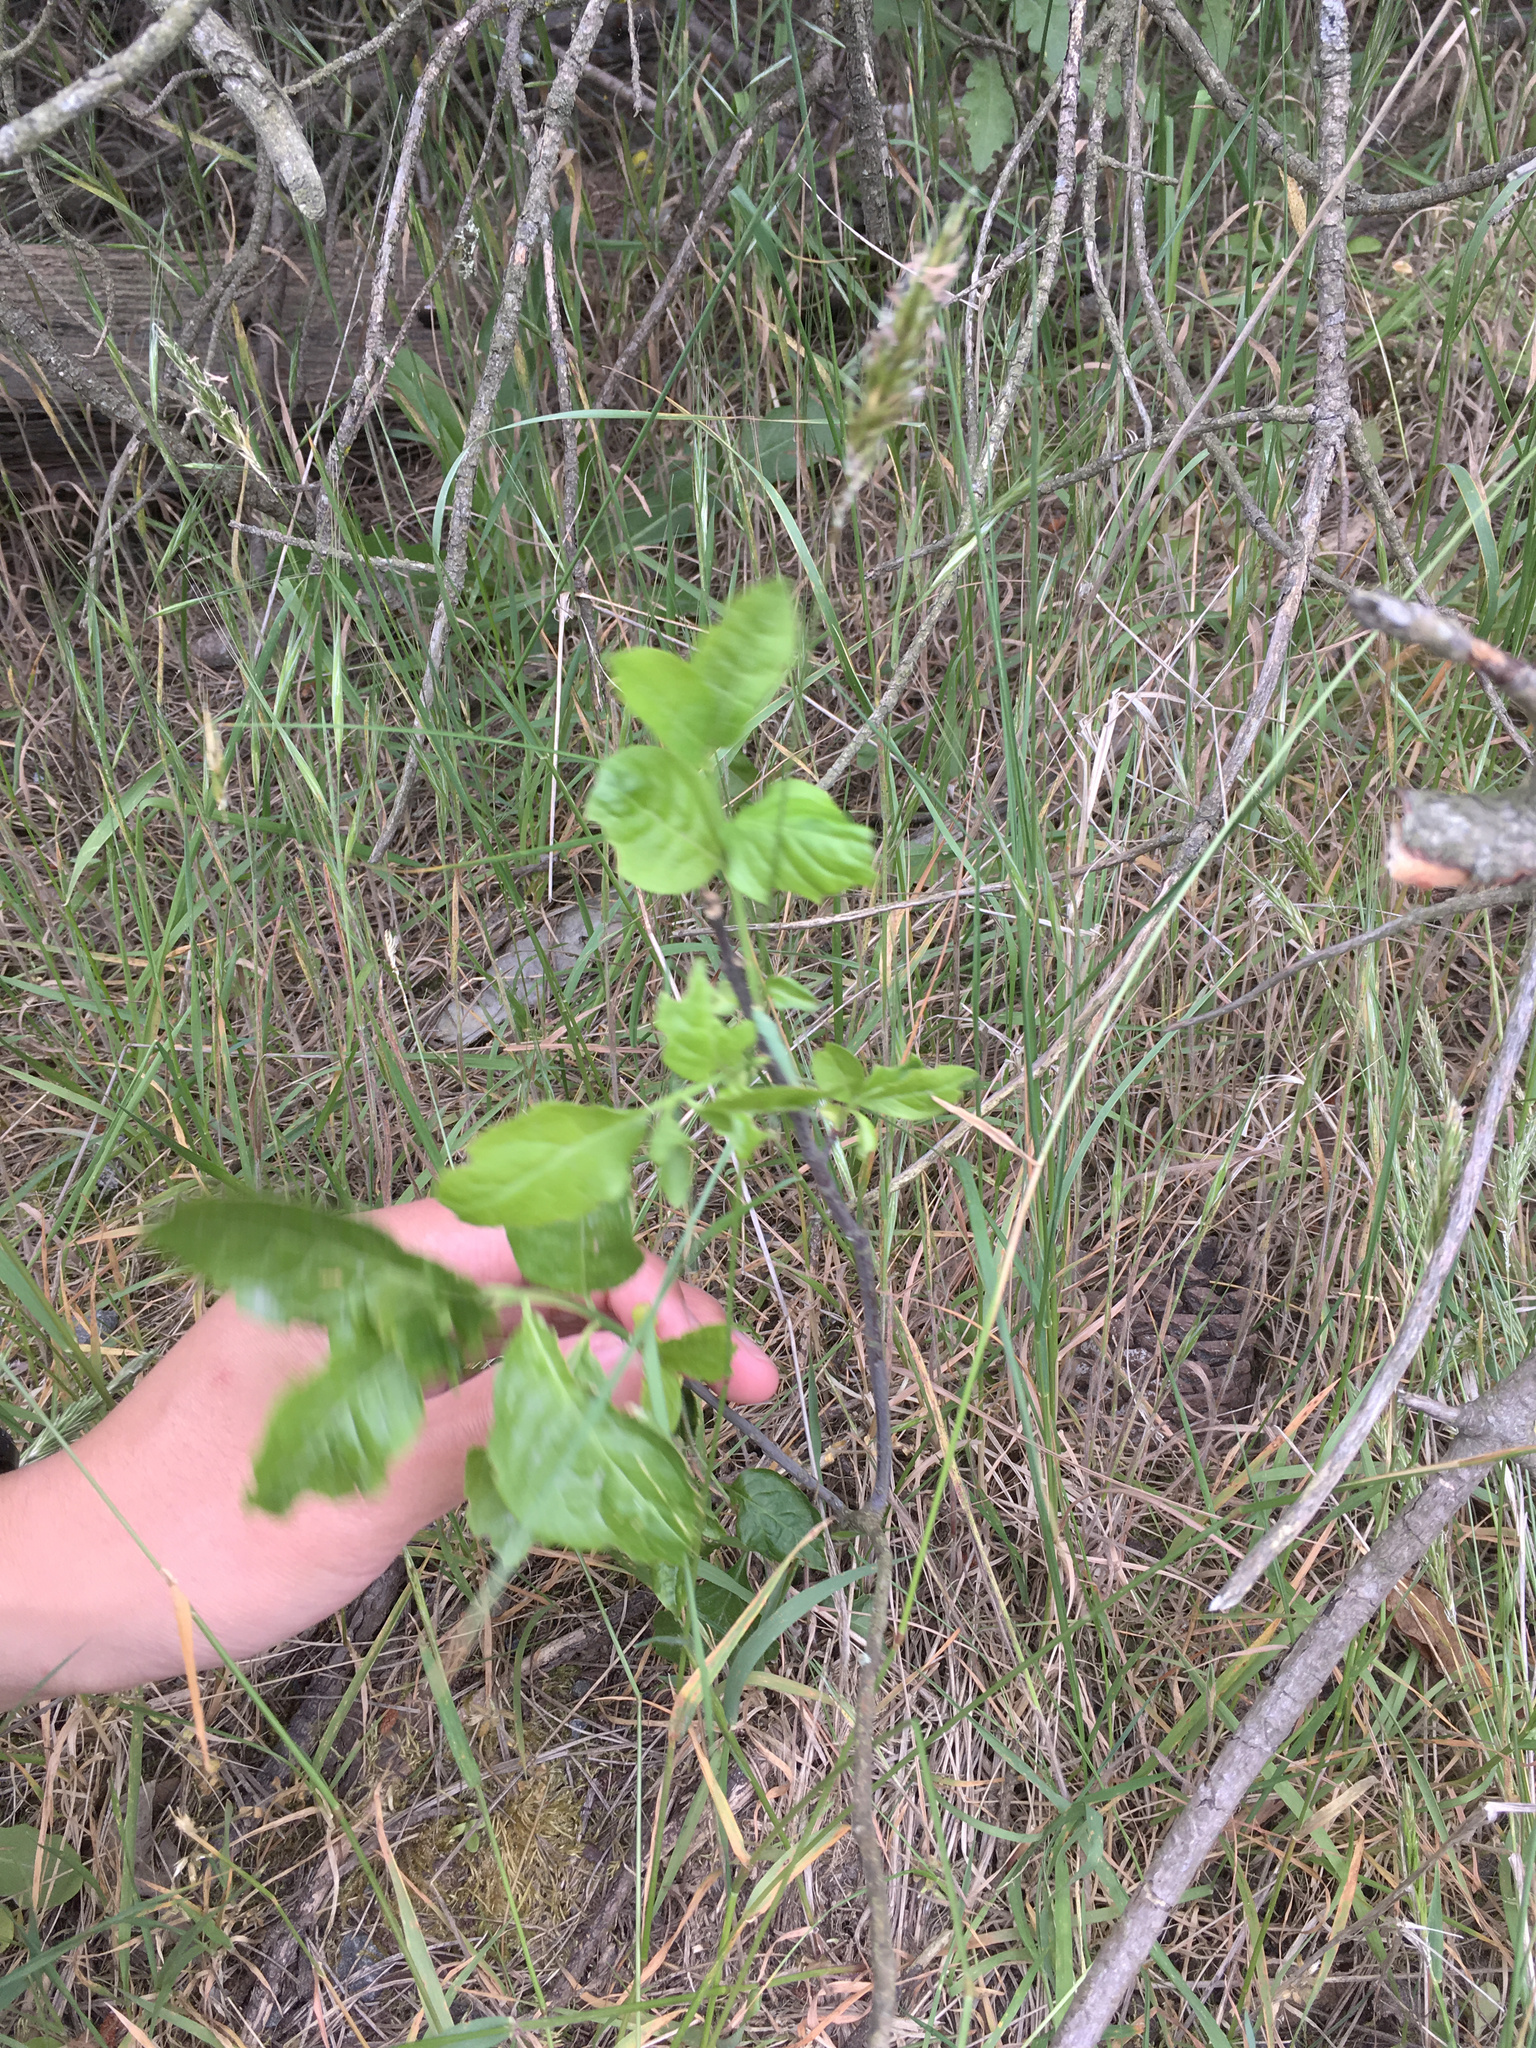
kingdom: Plantae
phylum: Tracheophyta
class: Magnoliopsida
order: Celastrales
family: Celastraceae
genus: Euonymus
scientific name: Euonymus europaeus
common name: Spindle
